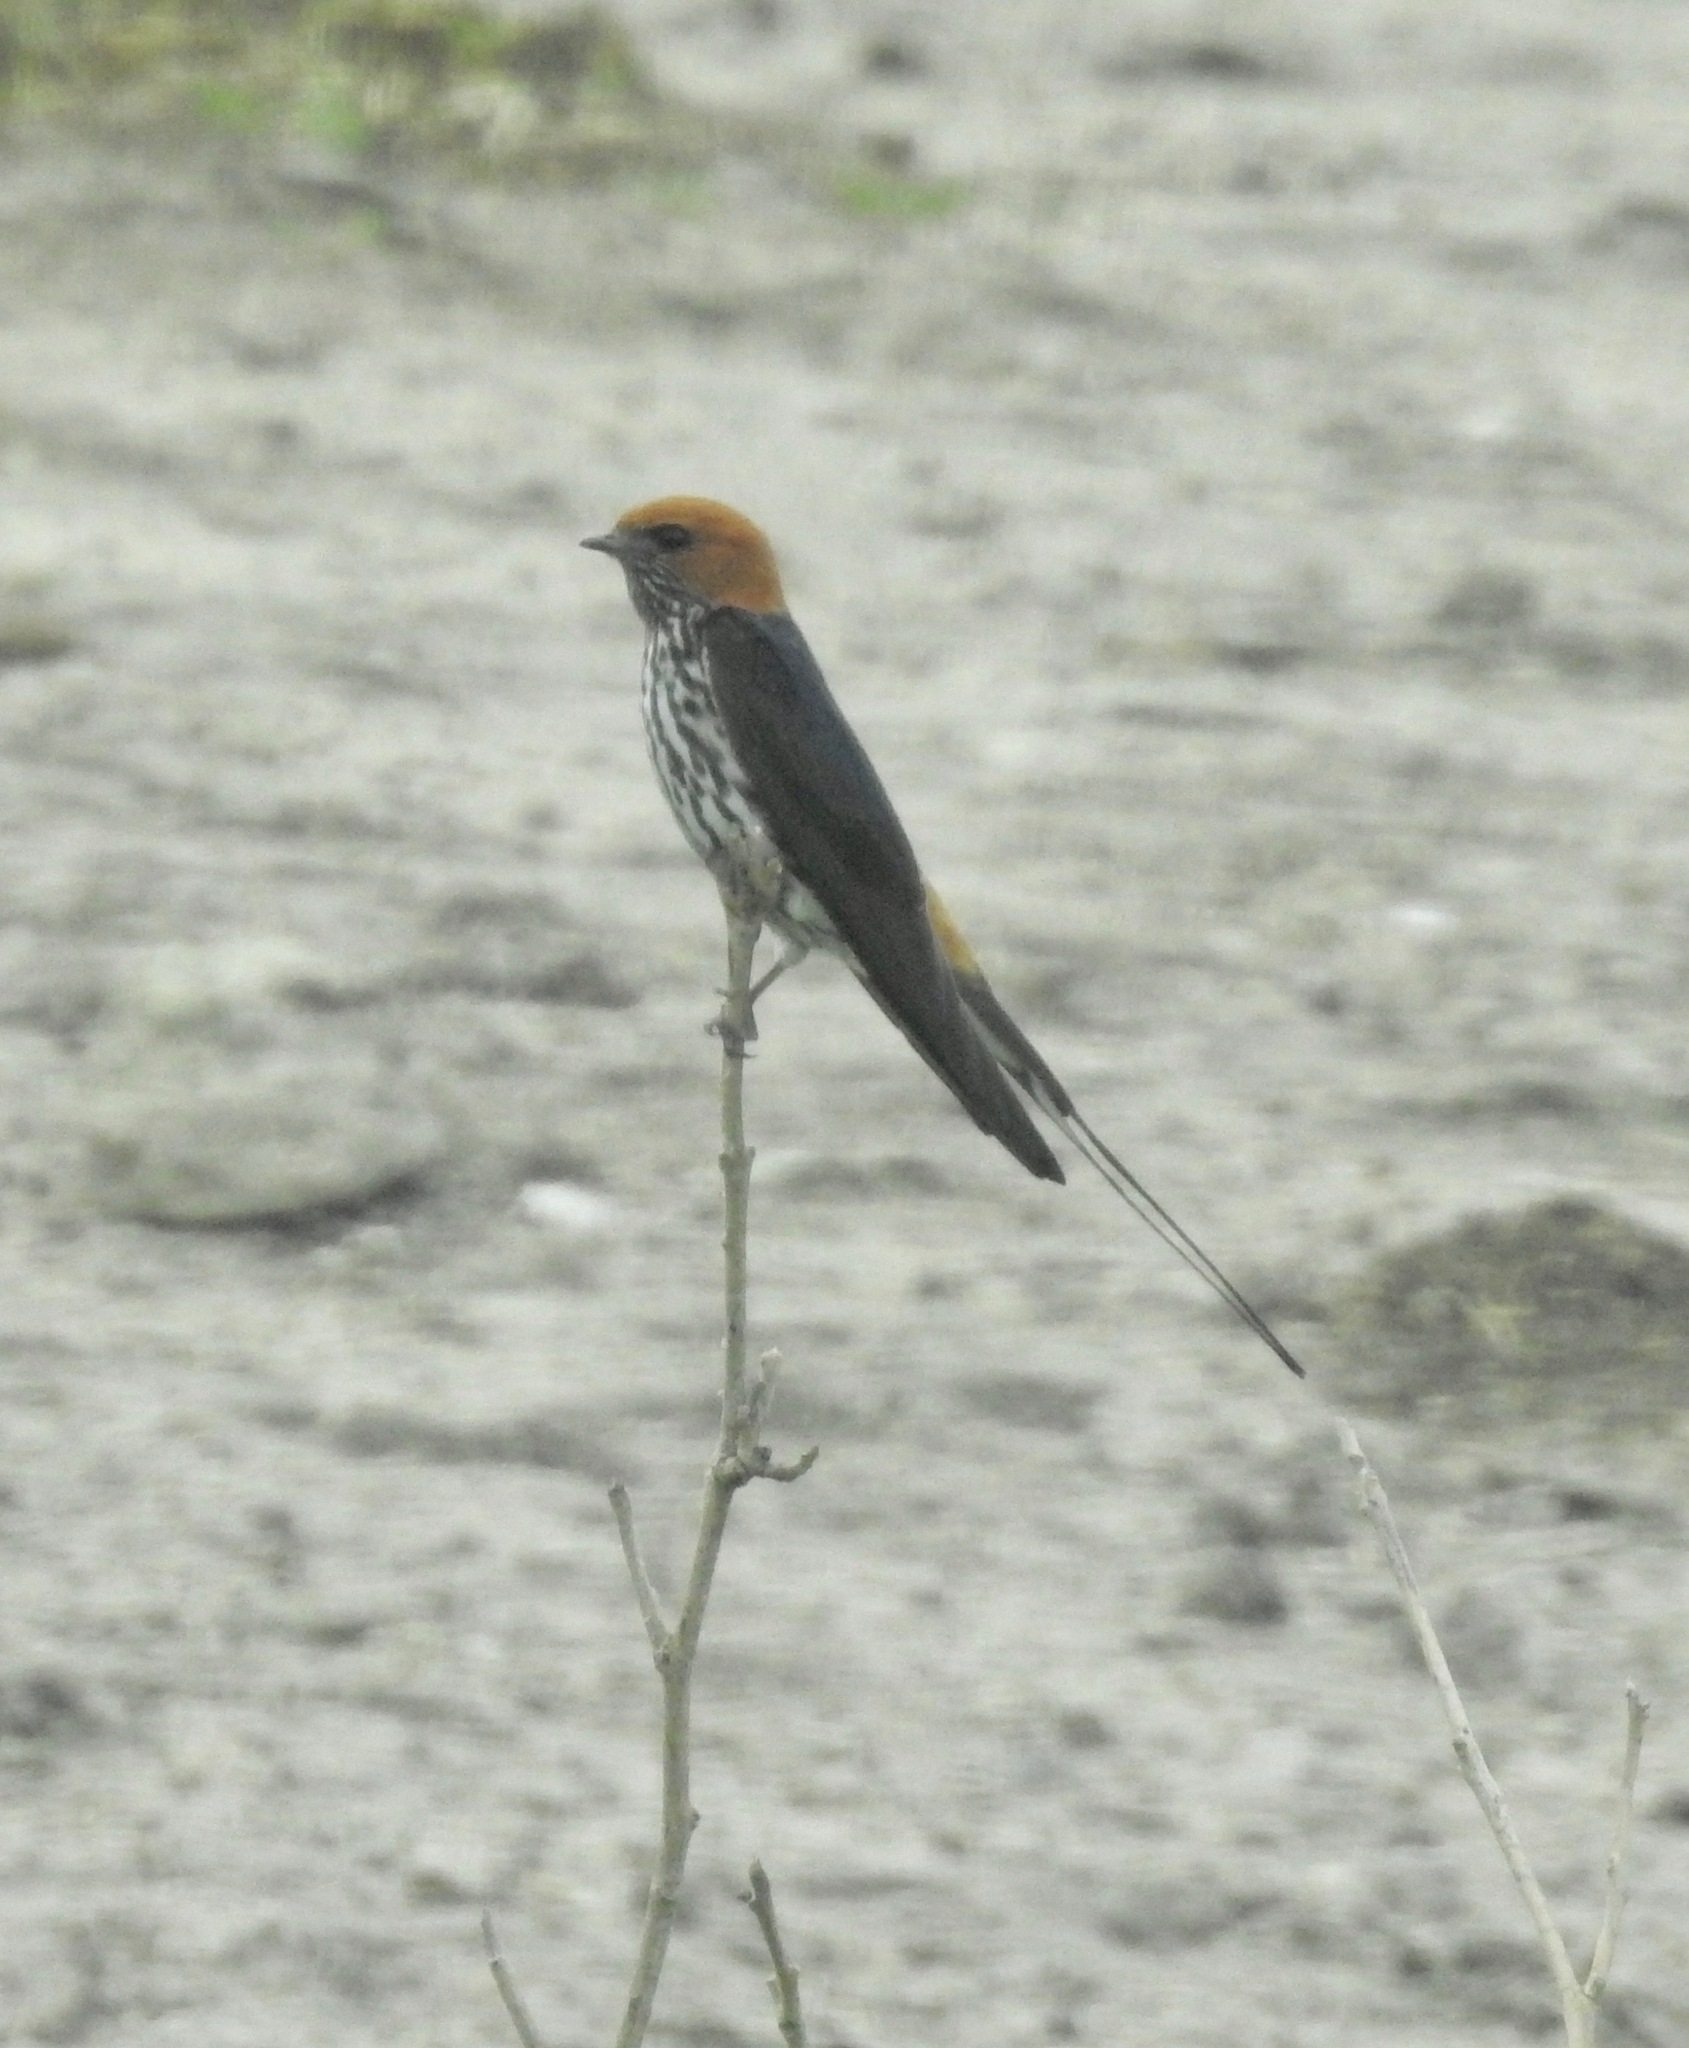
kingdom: Animalia
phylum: Chordata
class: Aves
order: Passeriformes
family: Hirundinidae
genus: Cecropis
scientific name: Cecropis abyssinica
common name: Lesser striped-swallow
